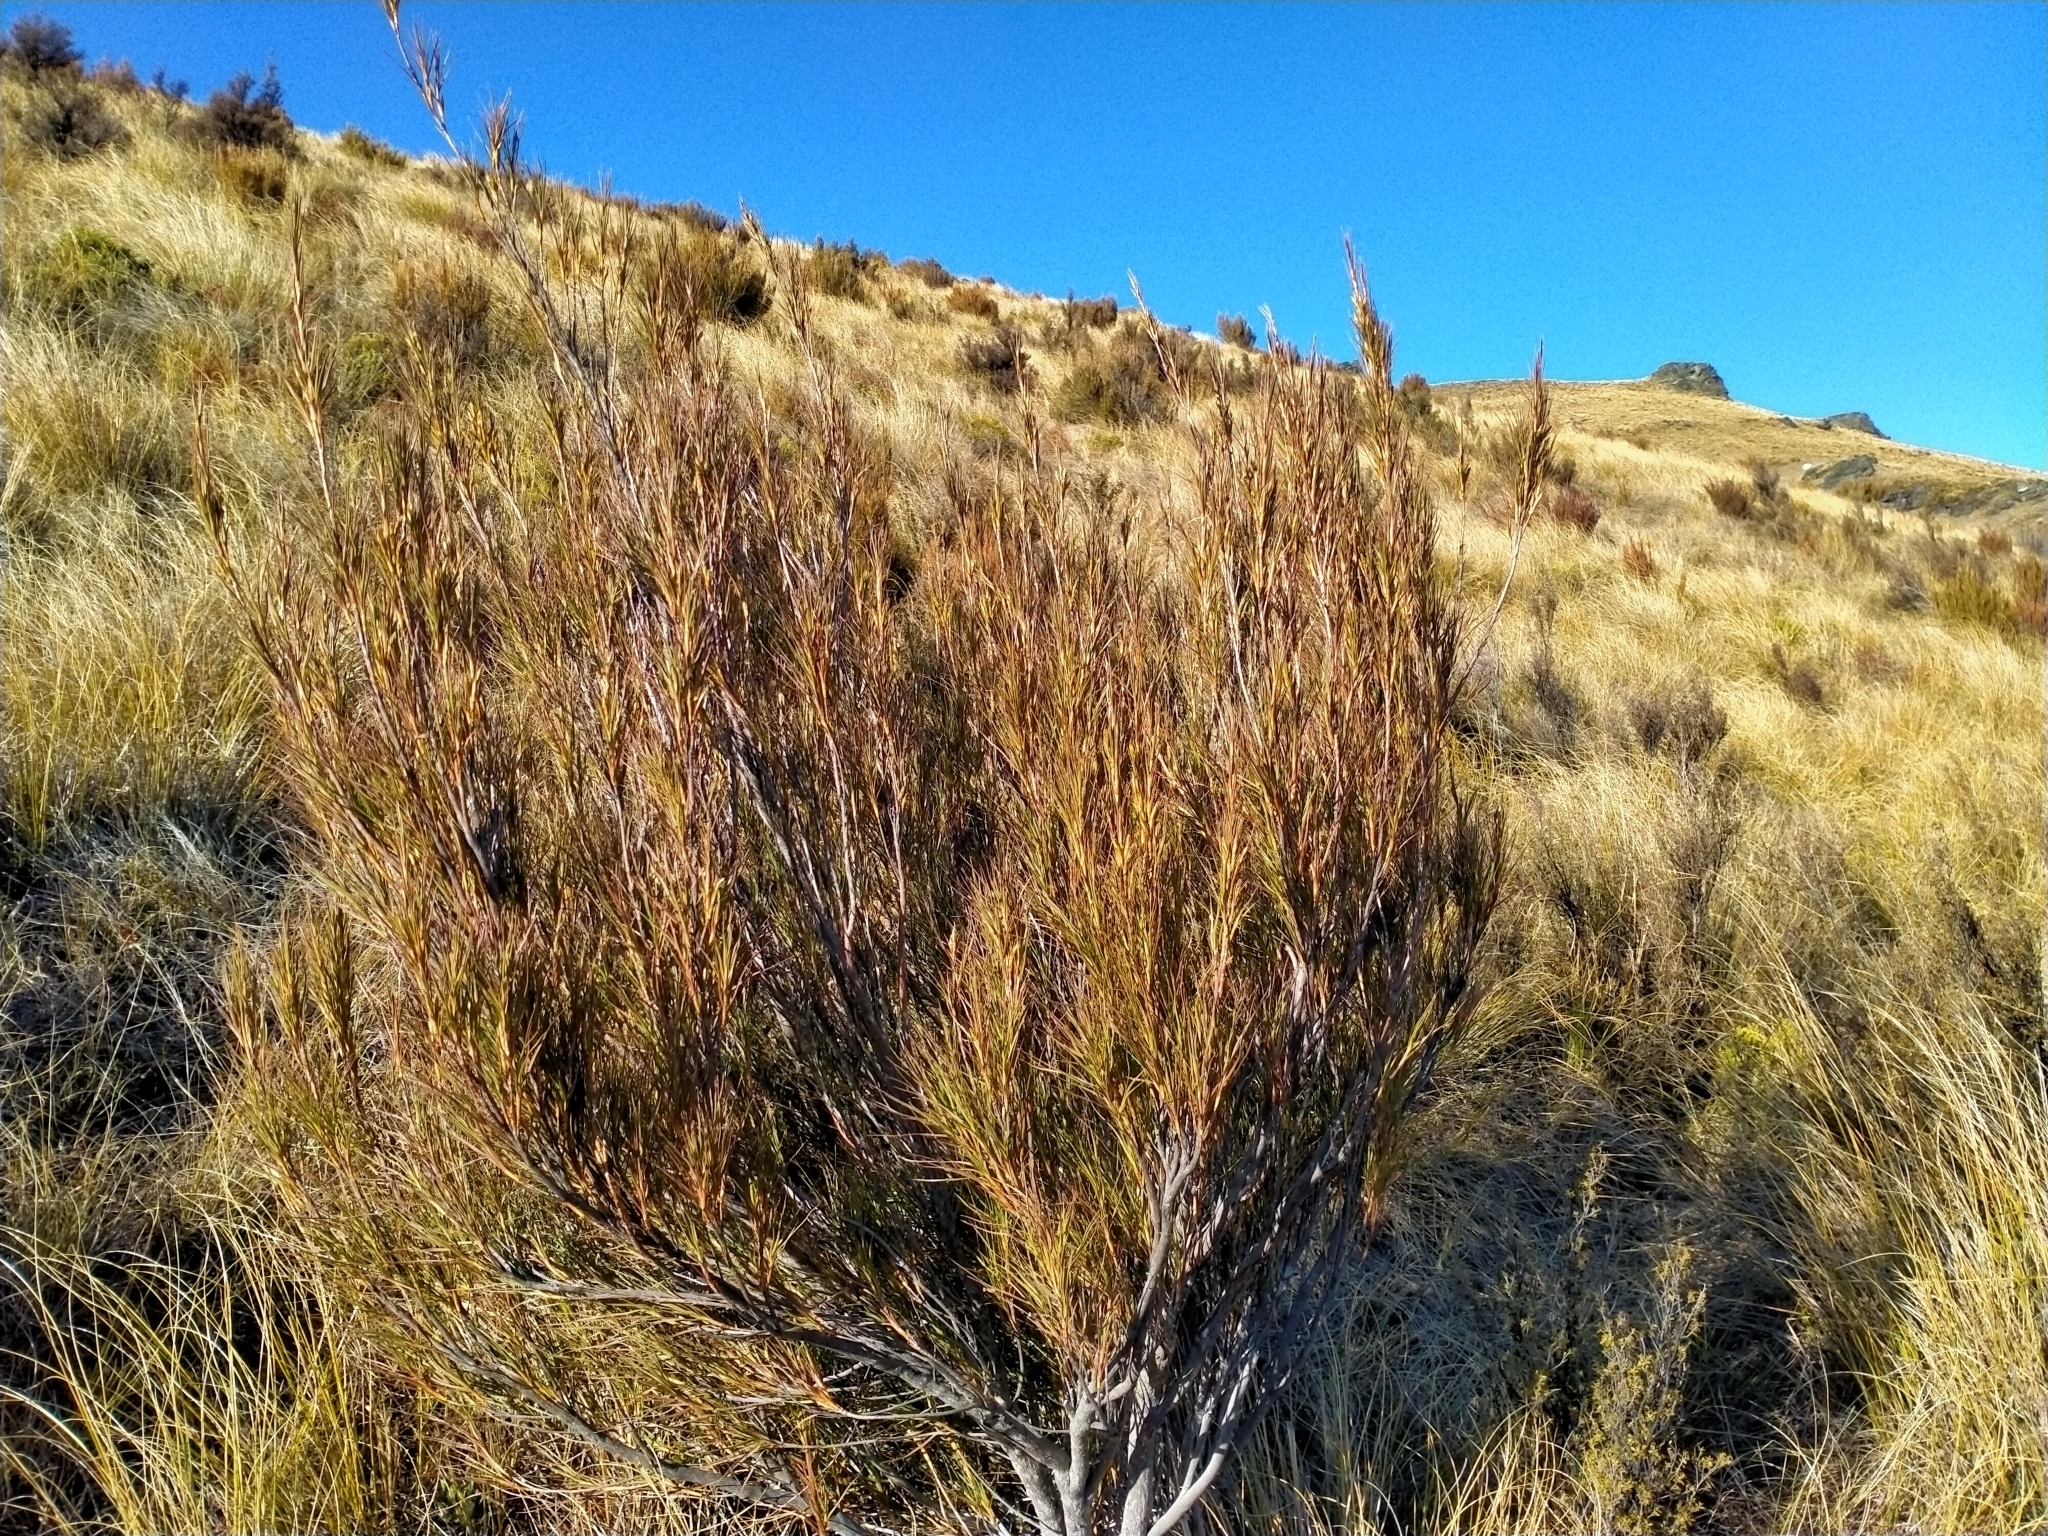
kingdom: Plantae
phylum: Tracheophyta
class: Magnoliopsida
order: Ericales
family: Ericaceae
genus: Dracophyllum
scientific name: Dracophyllum longifolium
